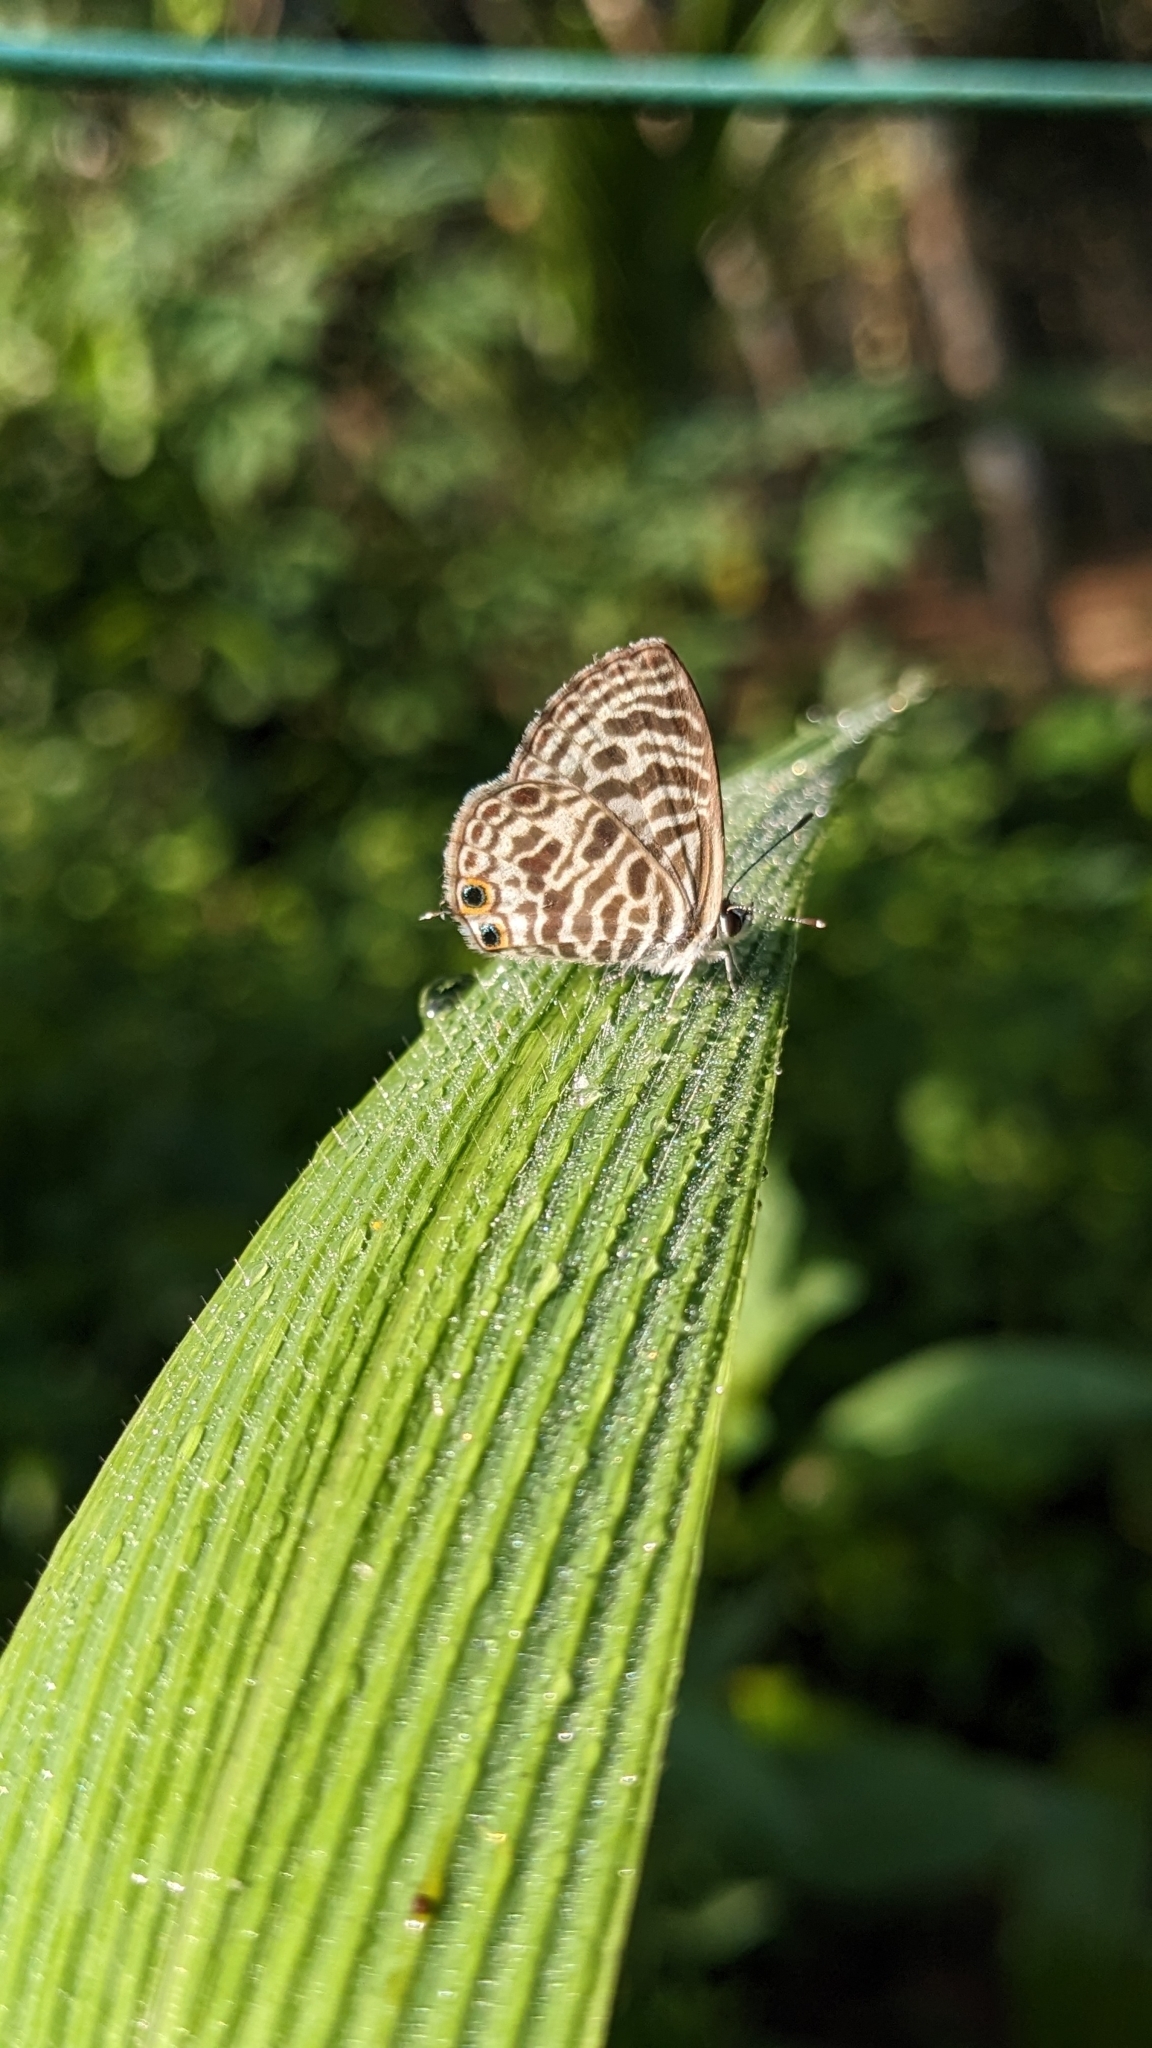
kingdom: Animalia
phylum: Arthropoda
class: Insecta
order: Lepidoptera
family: Lycaenidae
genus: Leptotes
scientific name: Leptotes plinius
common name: Zebra blue
